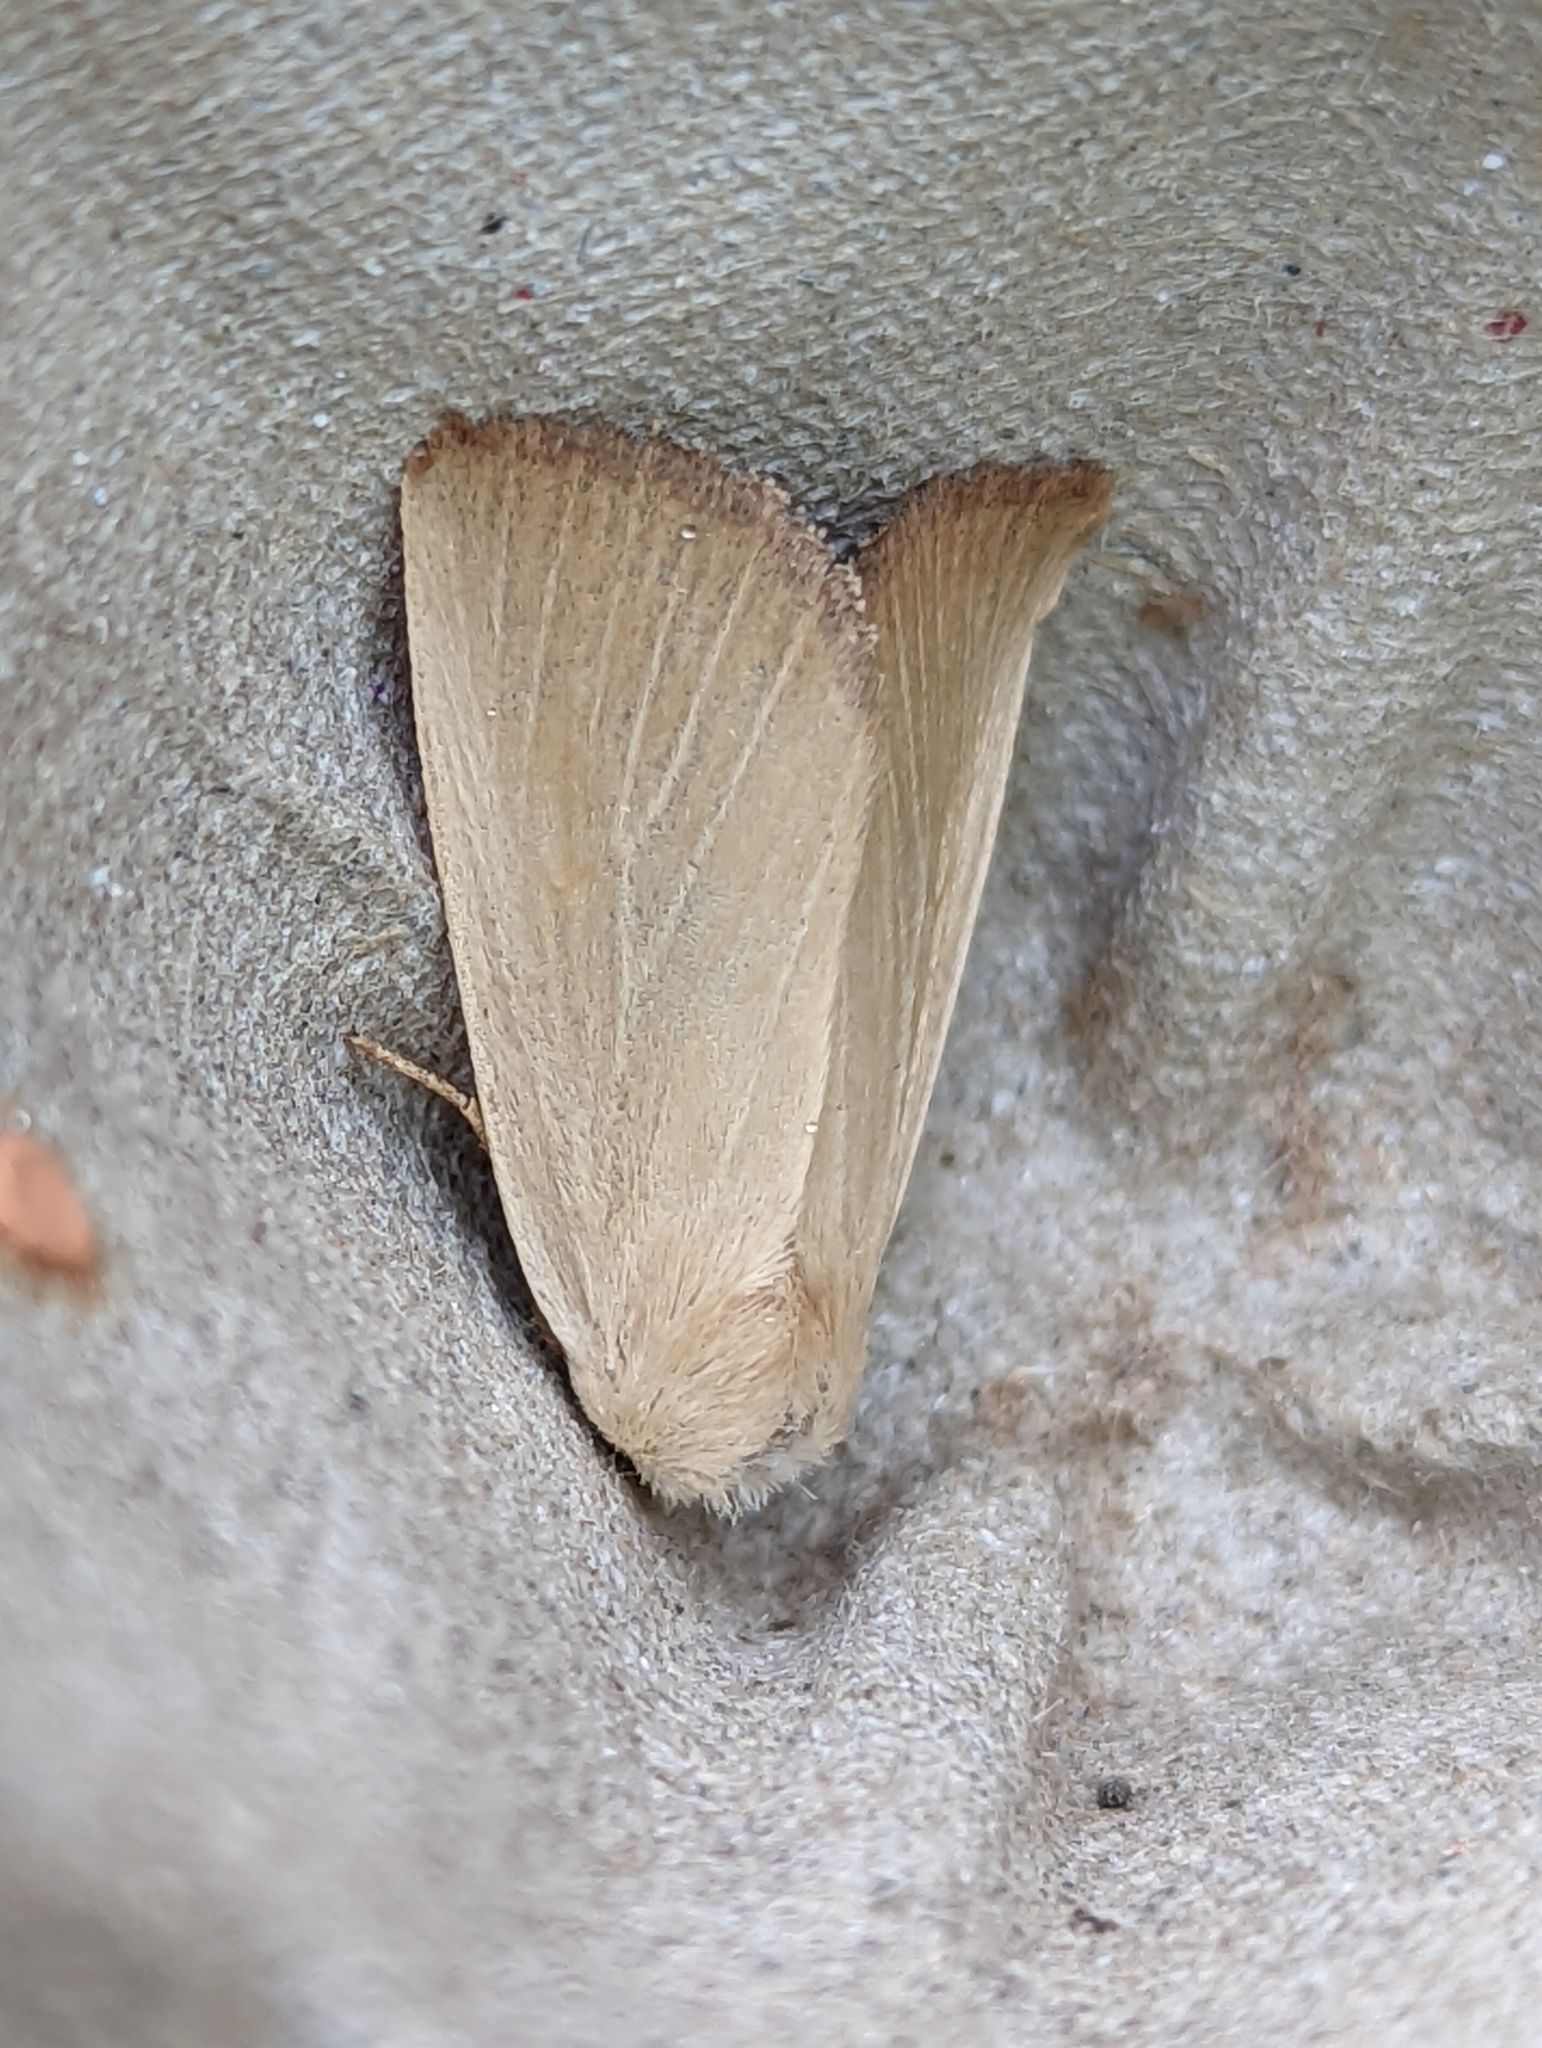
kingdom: Animalia
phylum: Arthropoda
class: Insecta
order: Lepidoptera
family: Noctuidae
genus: Arenostola
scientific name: Arenostola phragmitidis
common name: Fen wainscot
